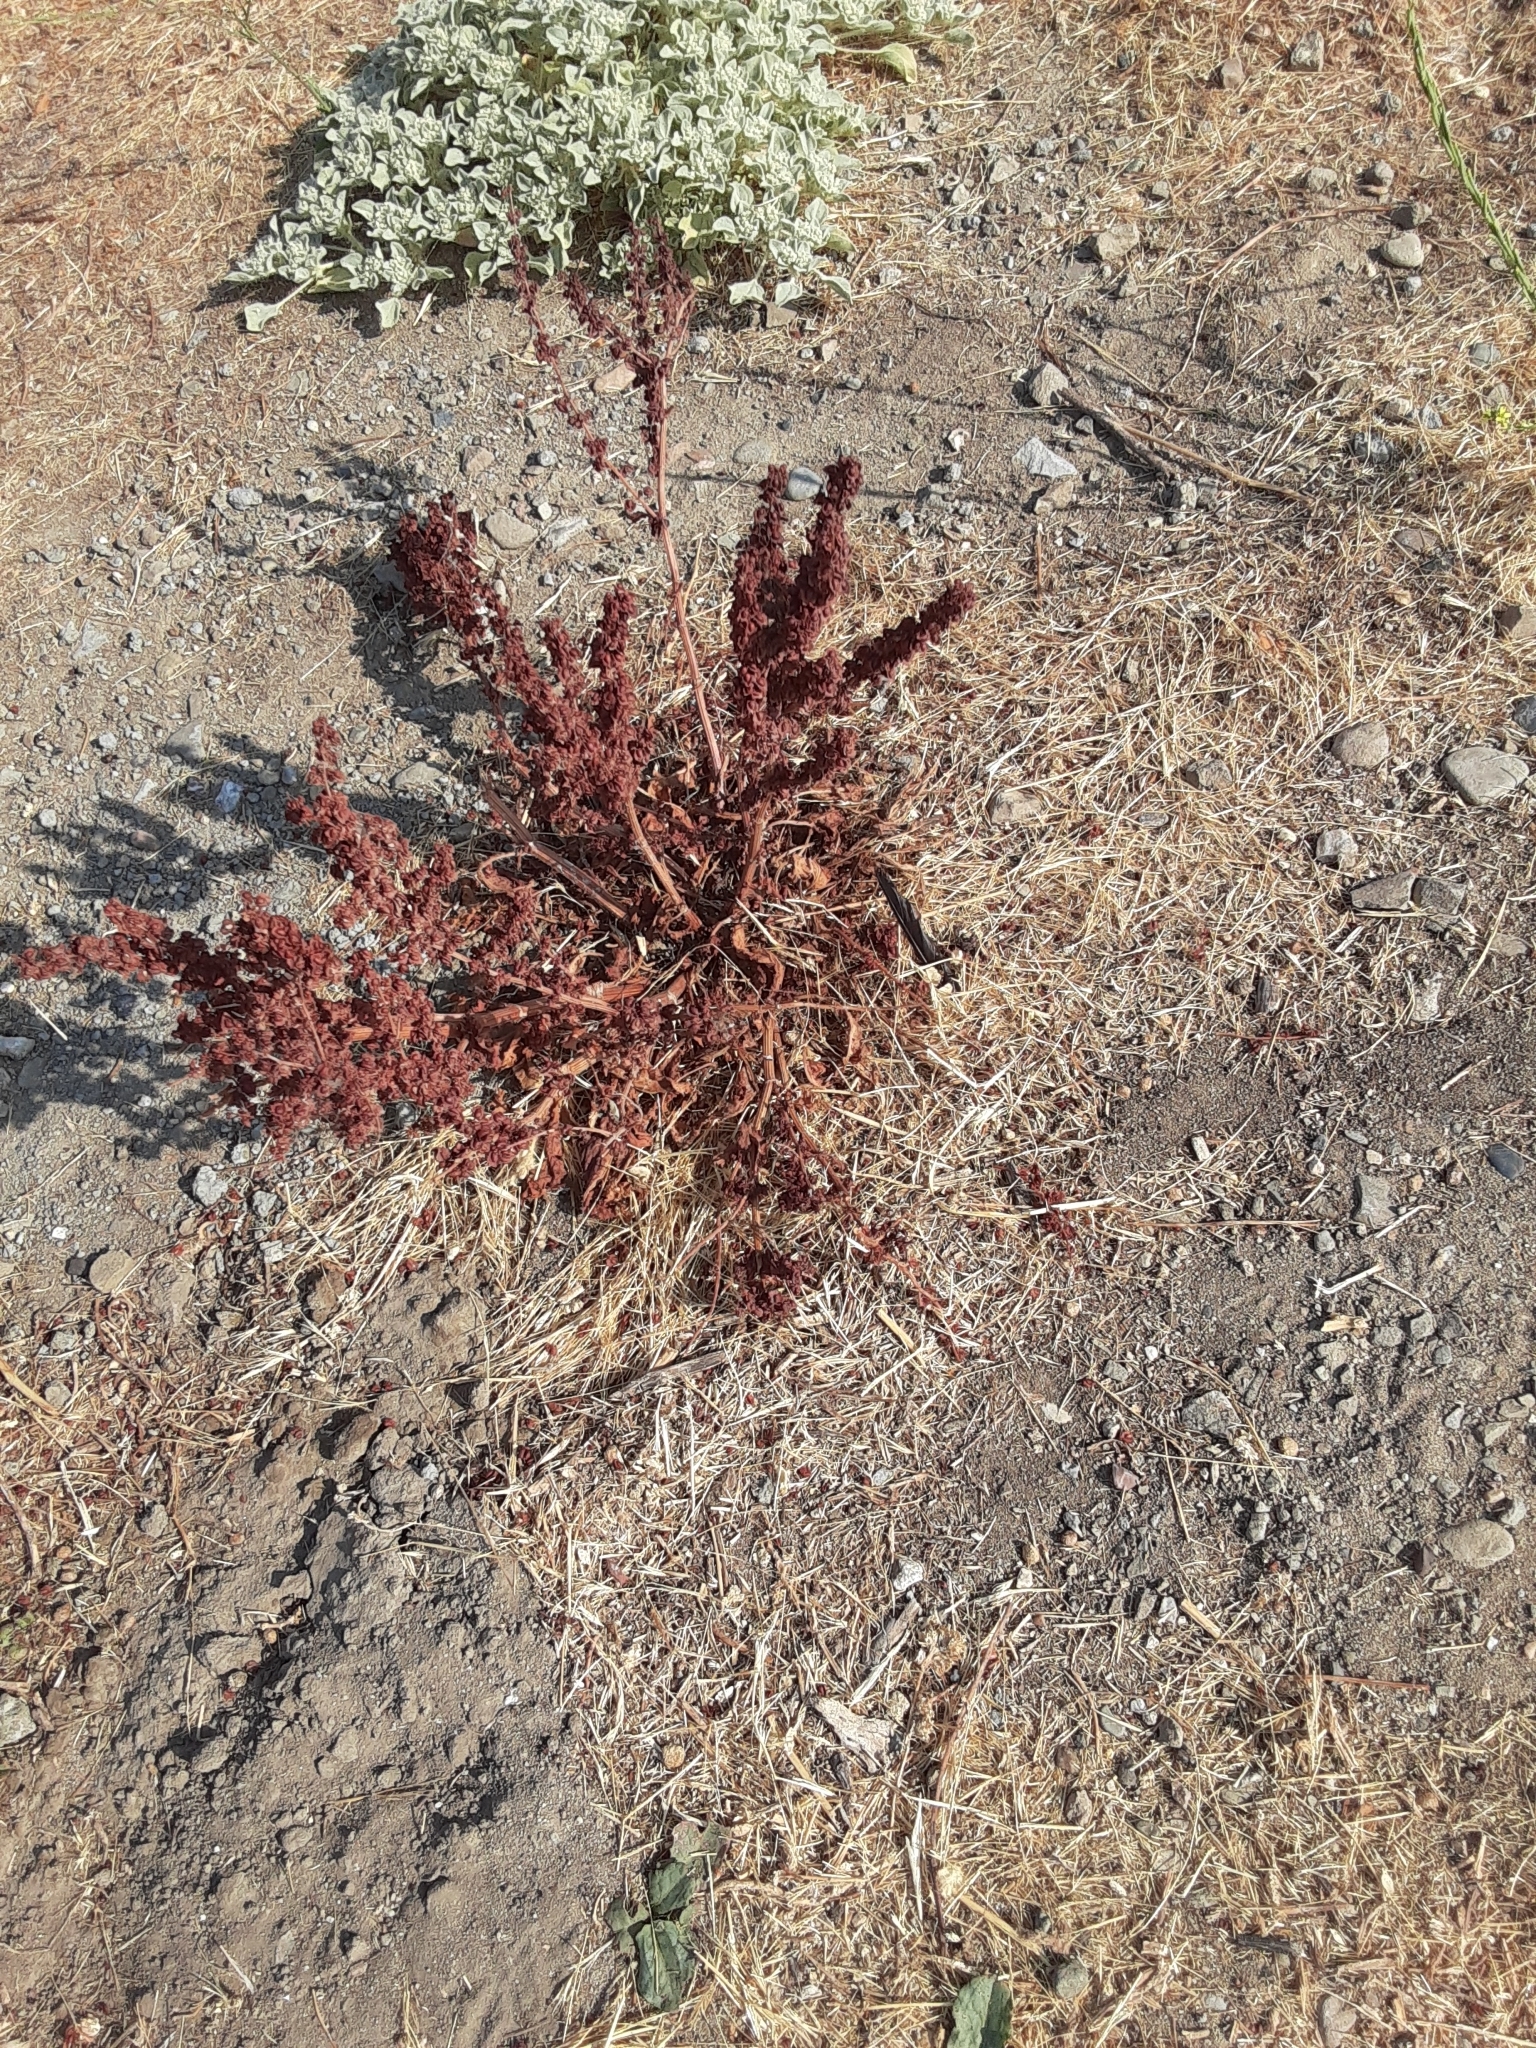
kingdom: Plantae
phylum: Tracheophyta
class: Magnoliopsida
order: Caryophyllales
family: Polygonaceae
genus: Rumex
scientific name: Rumex crispus
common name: Curled dock
